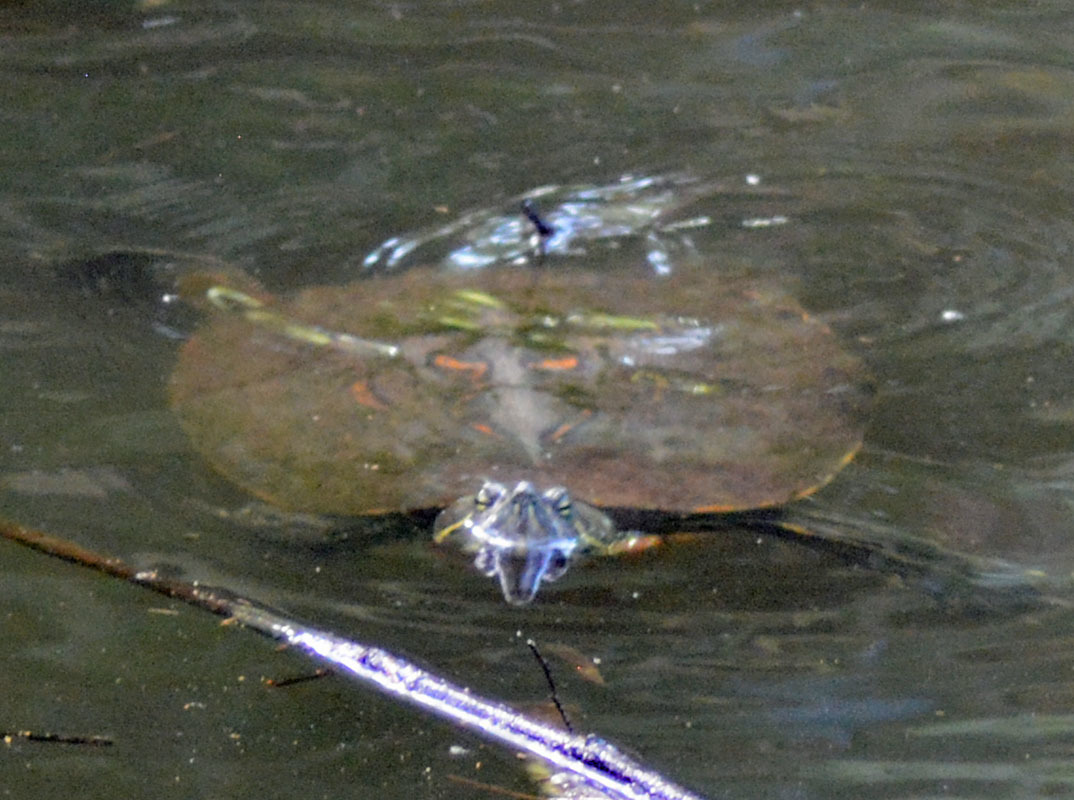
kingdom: Animalia
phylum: Chordata
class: Testudines
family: Emydidae
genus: Trachemys
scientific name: Trachemys venusta
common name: Mesoamerican slider
